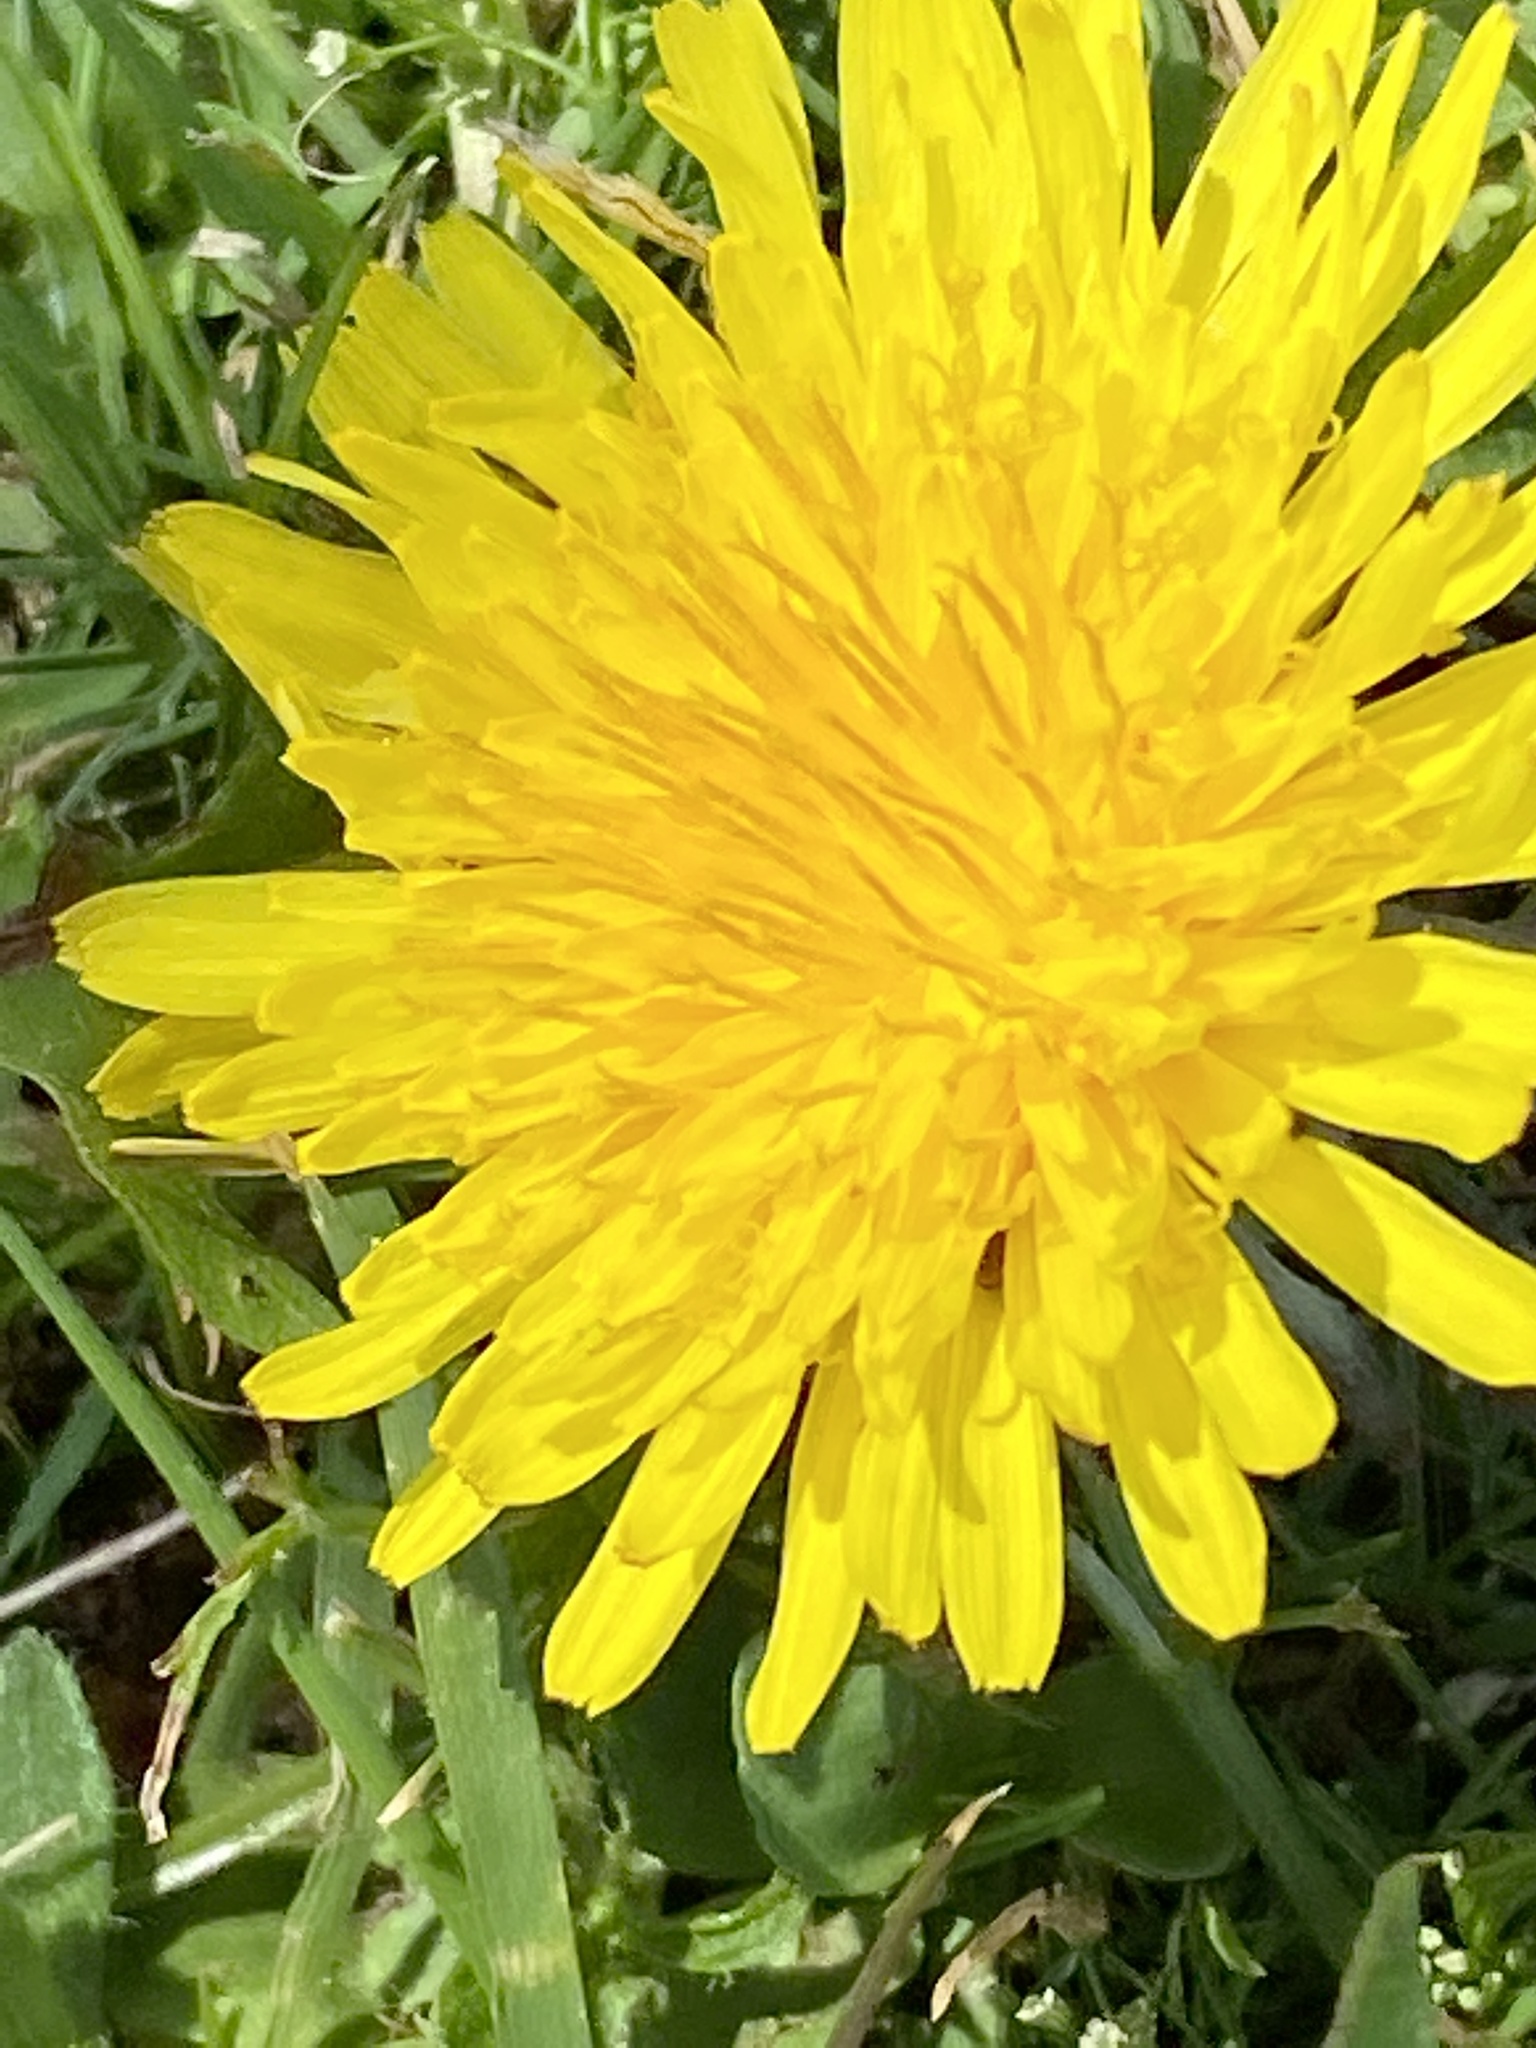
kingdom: Plantae
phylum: Tracheophyta
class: Magnoliopsida
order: Asterales
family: Asteraceae
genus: Taraxacum
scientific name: Taraxacum officinale
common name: Common dandelion
